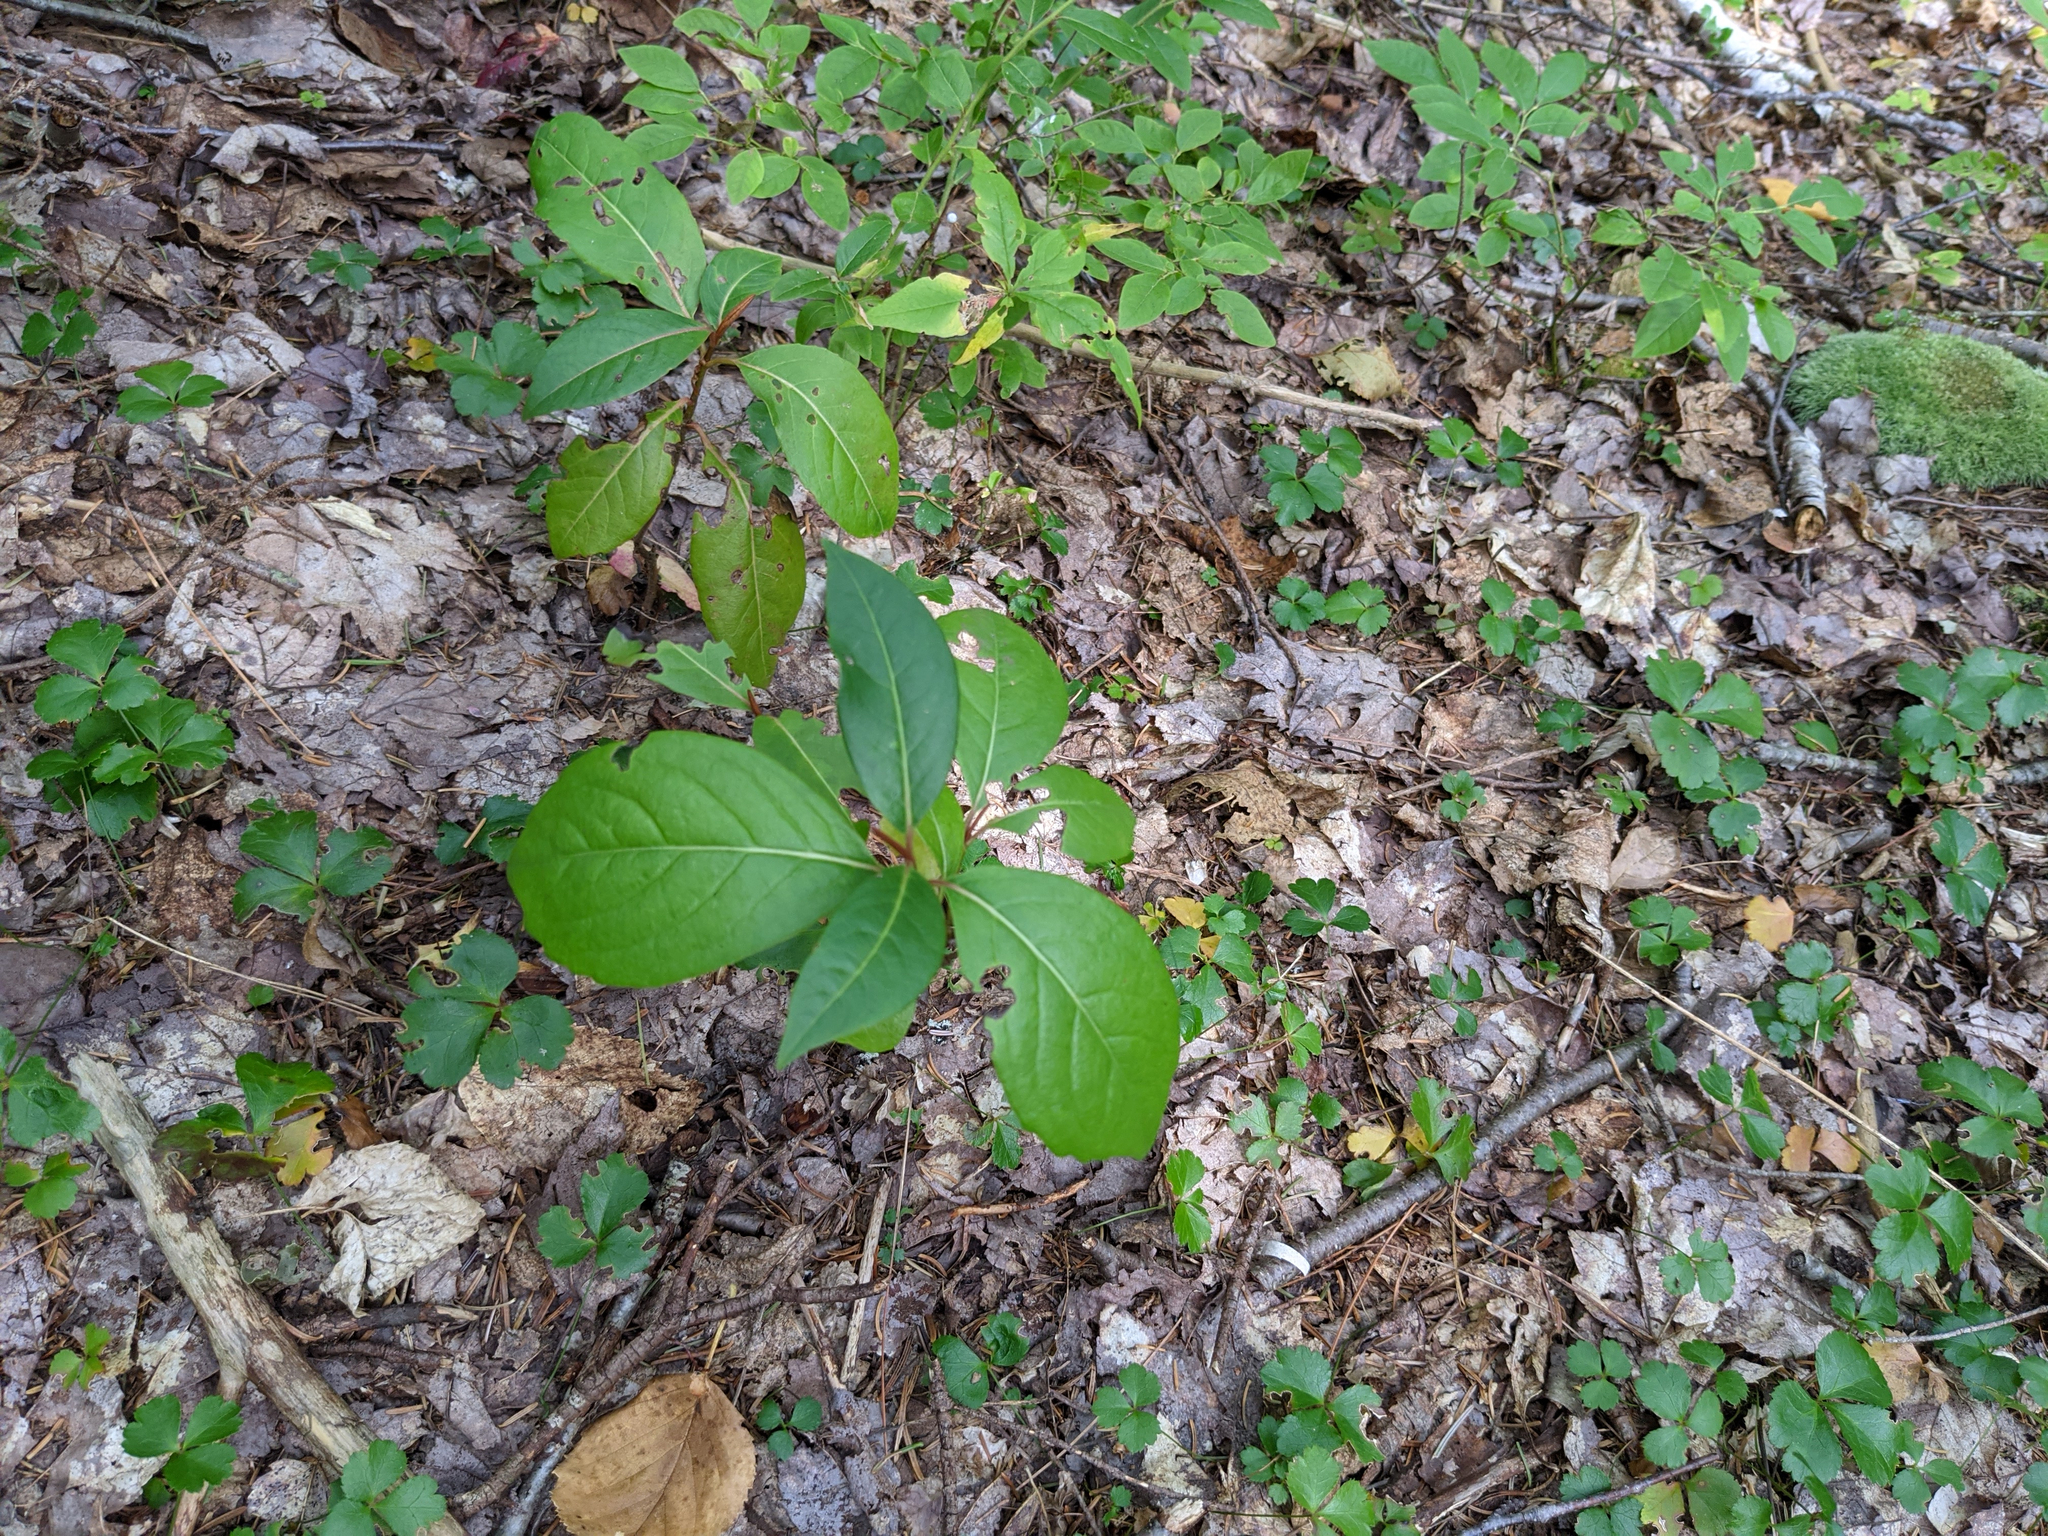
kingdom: Plantae
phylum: Tracheophyta
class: Magnoliopsida
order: Dipsacales
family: Viburnaceae
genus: Viburnum
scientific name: Viburnum cassinoides
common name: Swamp haw
